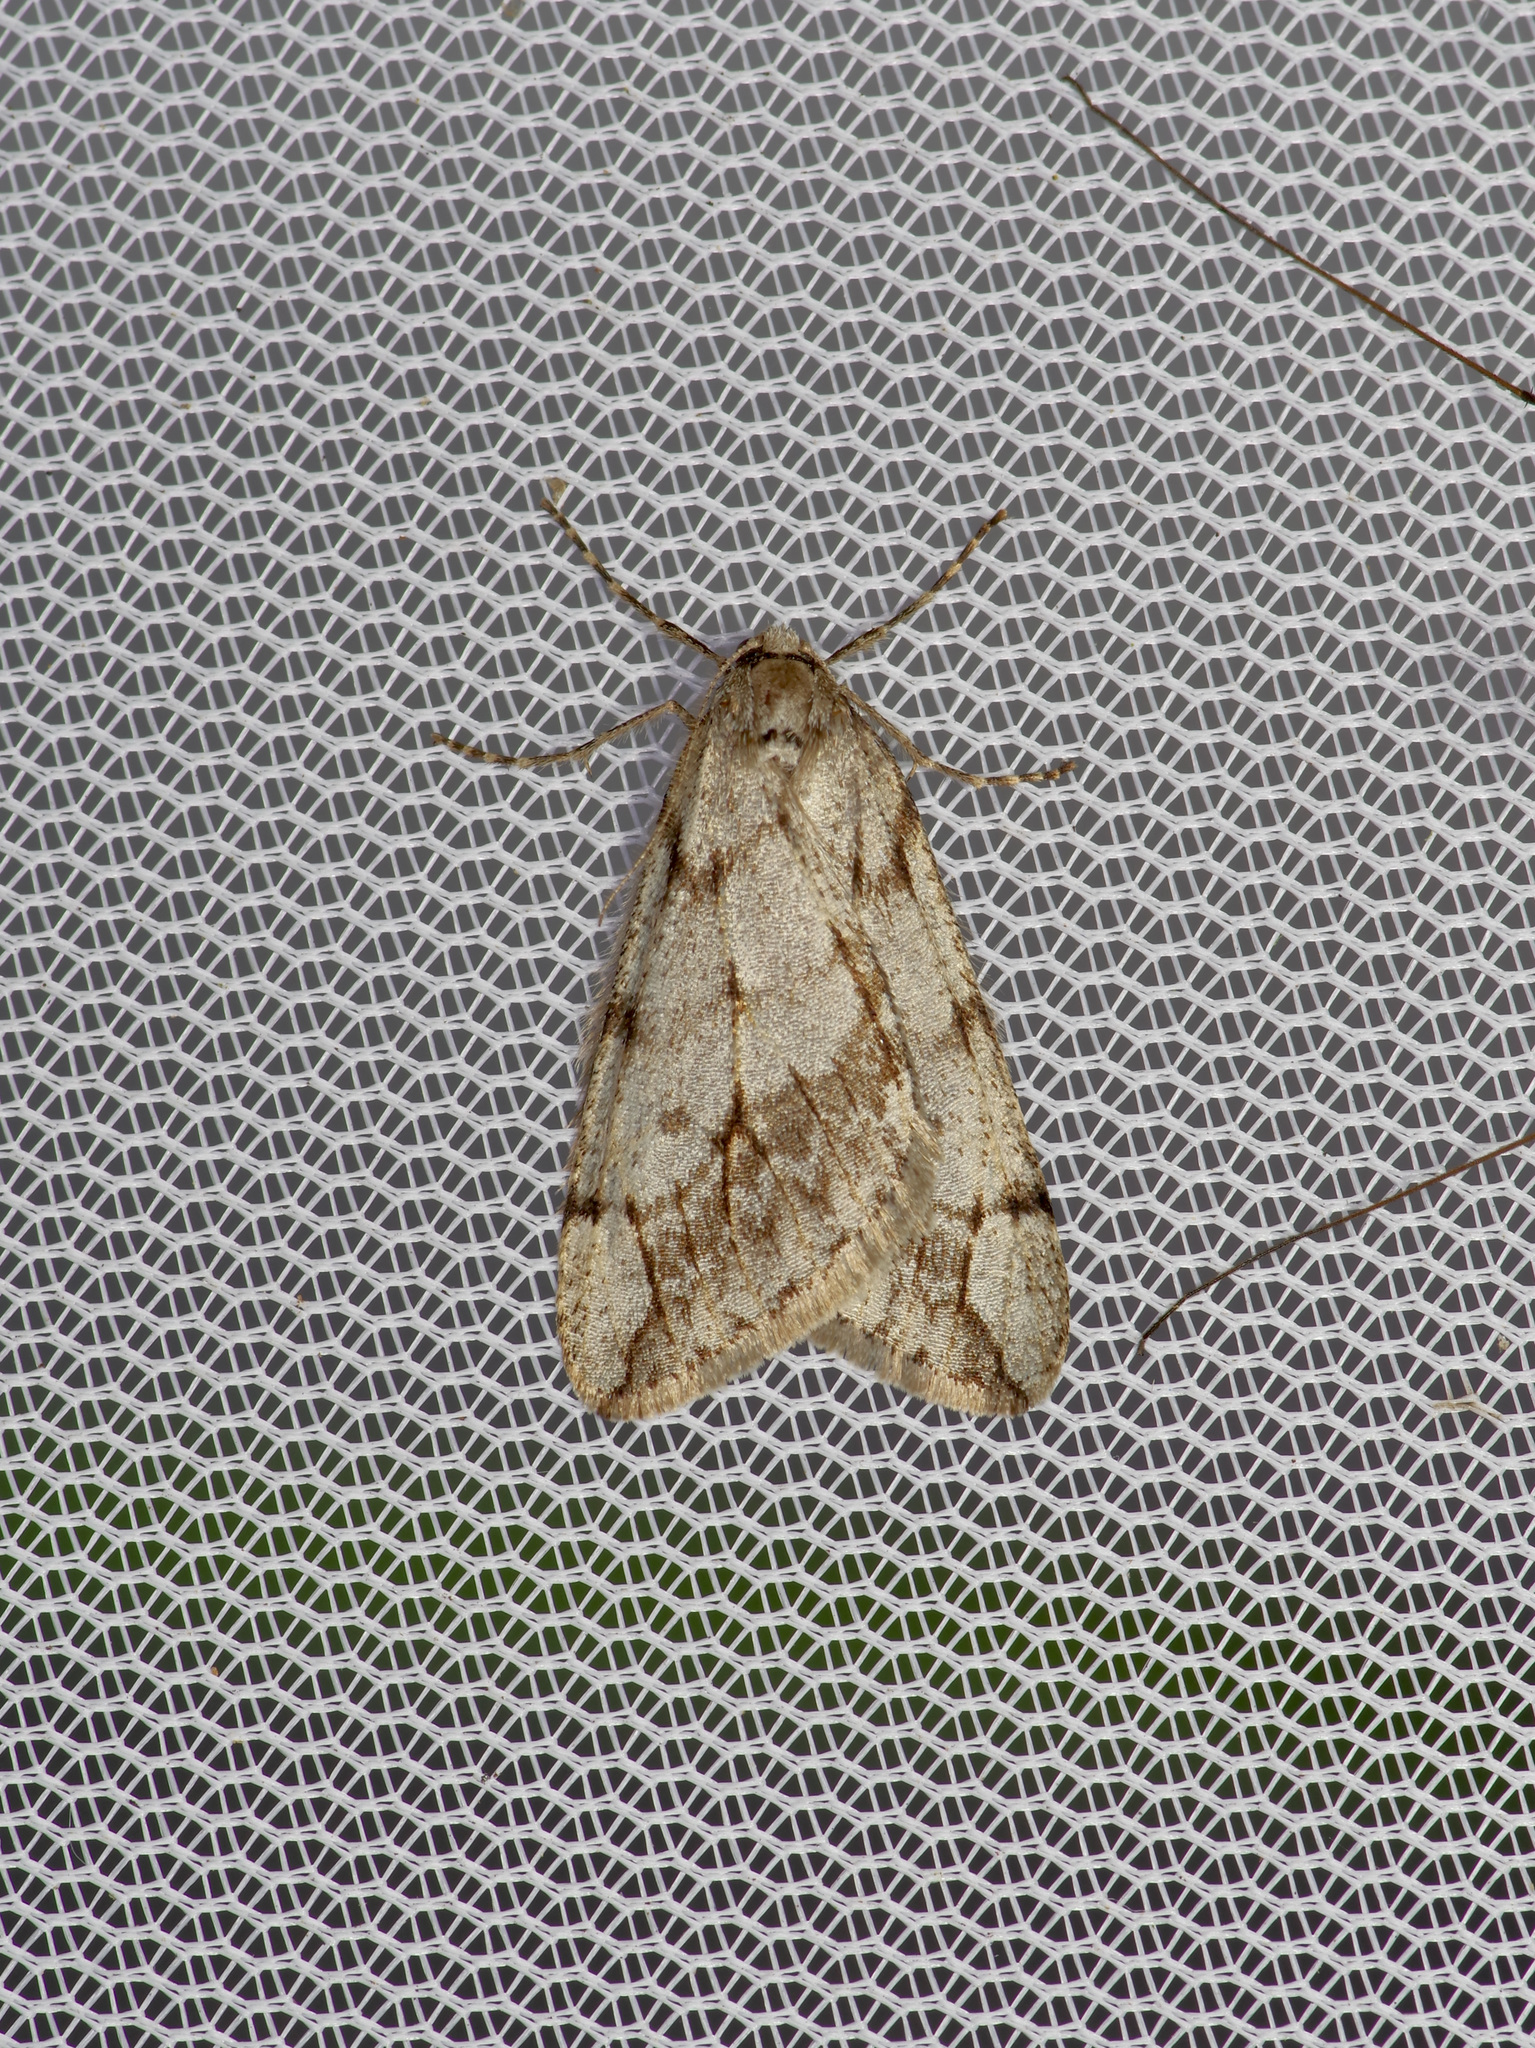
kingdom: Animalia
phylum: Arthropoda
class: Insecta
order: Lepidoptera
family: Geometridae
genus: Paleacrita
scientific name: Paleacrita vernata
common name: Spring cankerworm
